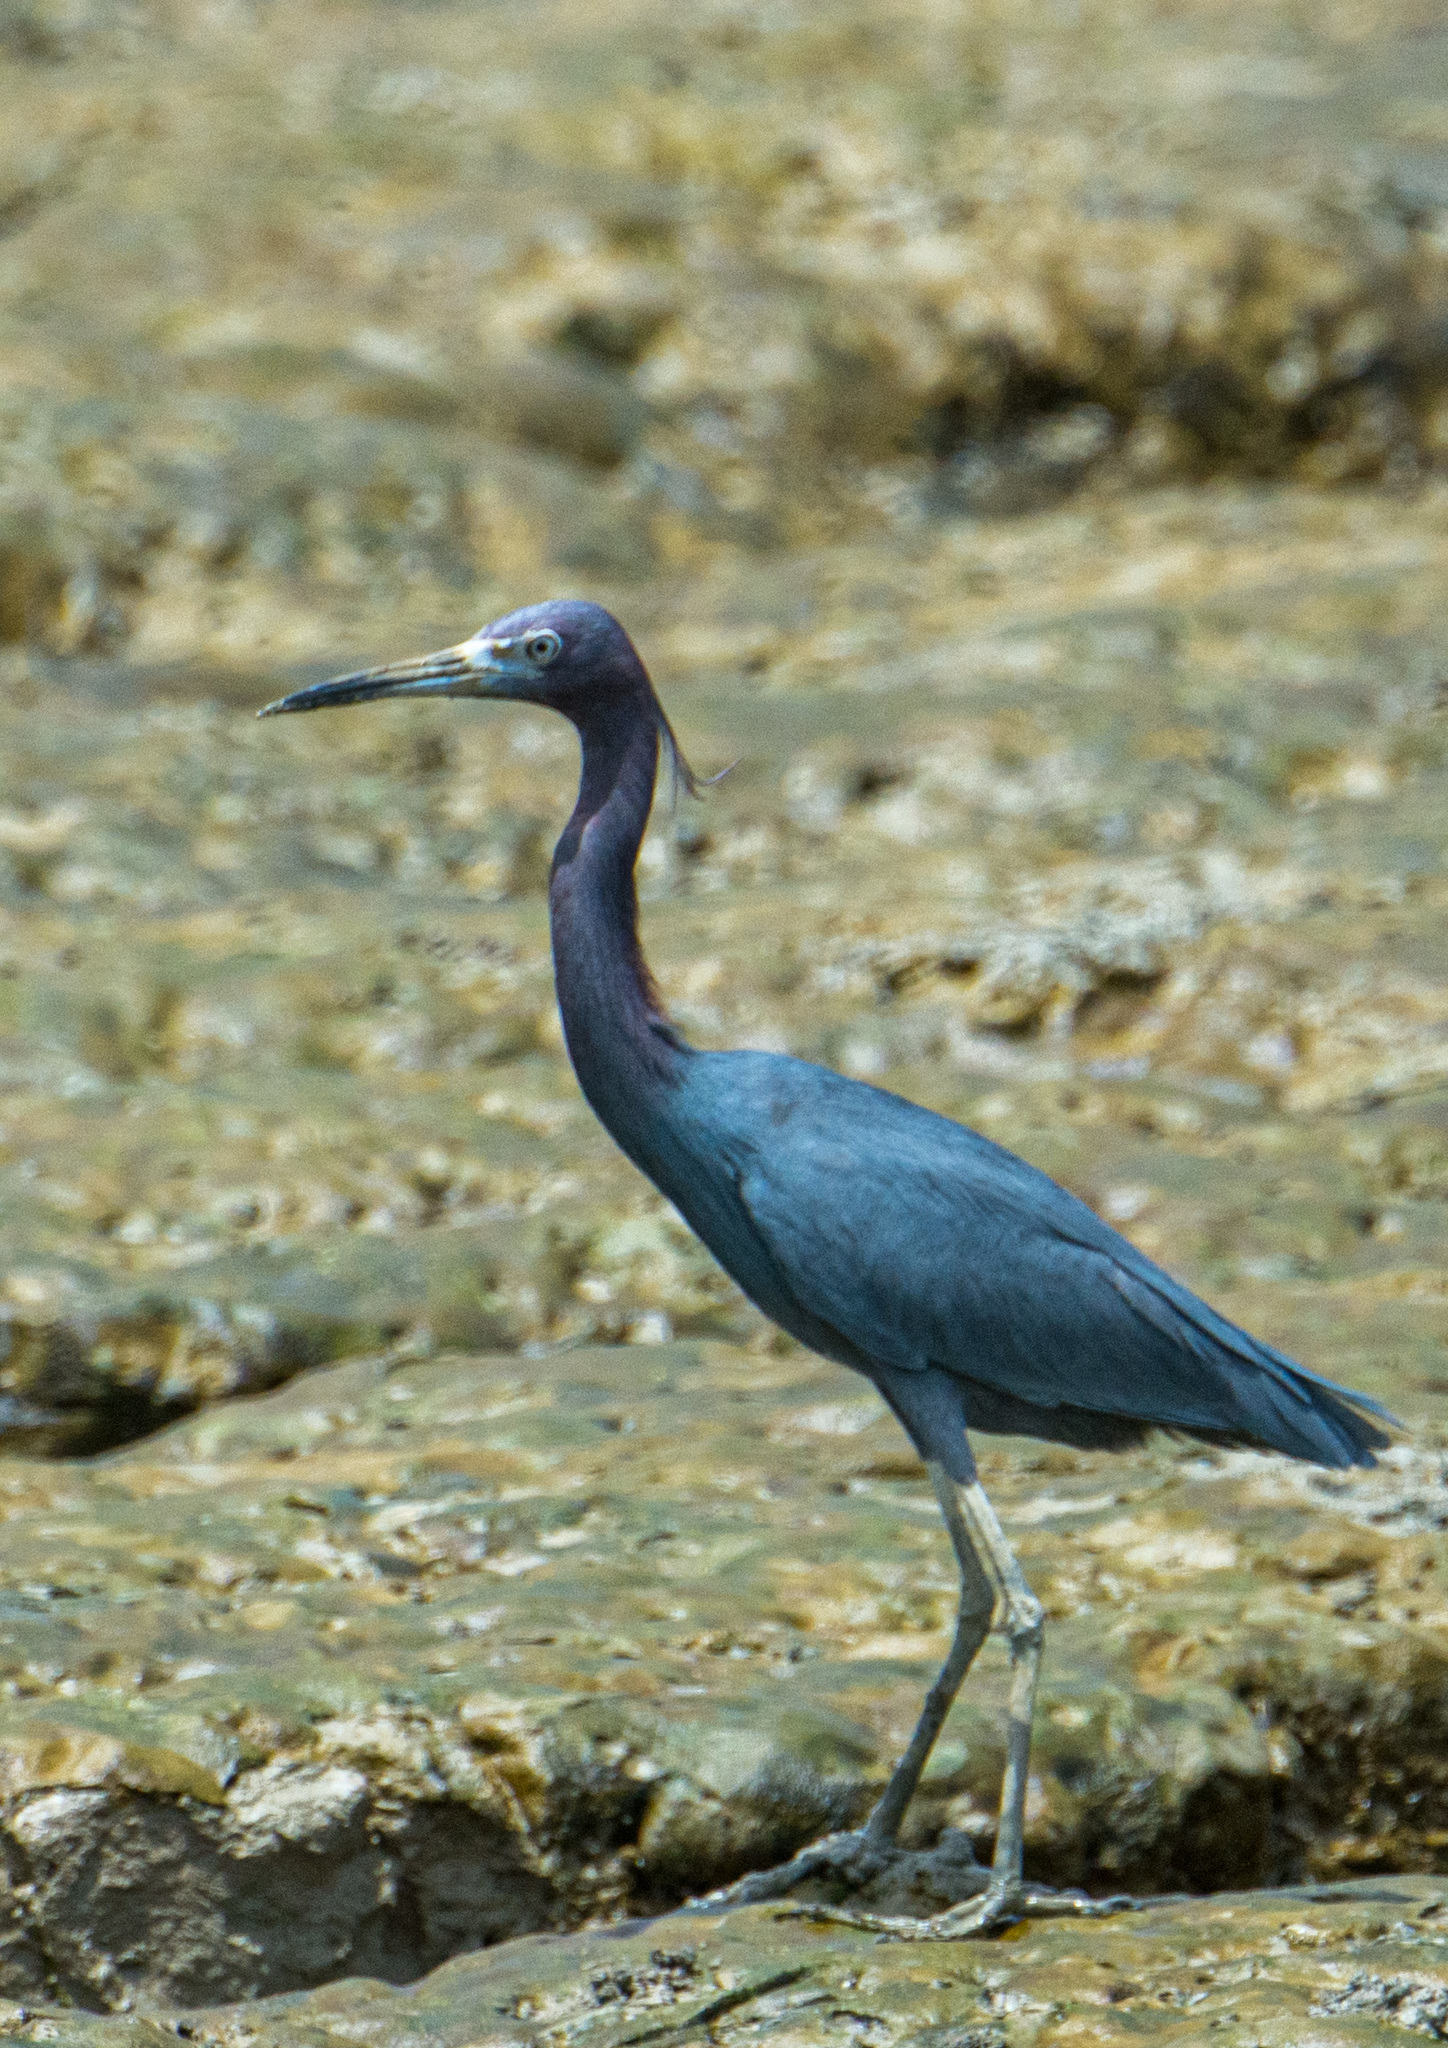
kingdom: Animalia
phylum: Chordata
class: Aves
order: Pelecaniformes
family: Ardeidae
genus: Egretta
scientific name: Egretta caerulea
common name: Little blue heron
